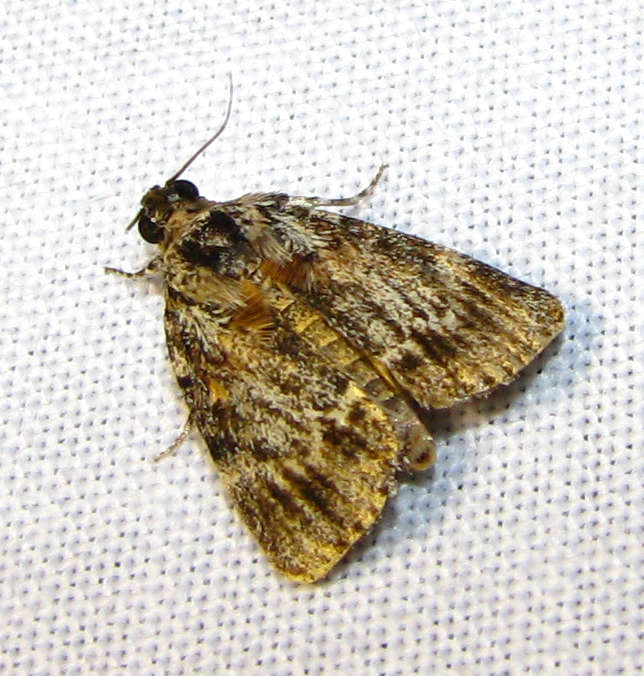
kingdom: Animalia
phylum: Arthropoda
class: Insecta
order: Lepidoptera
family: Pyralidae
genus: Spectrotrota
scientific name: Spectrotrota fimbrialis
